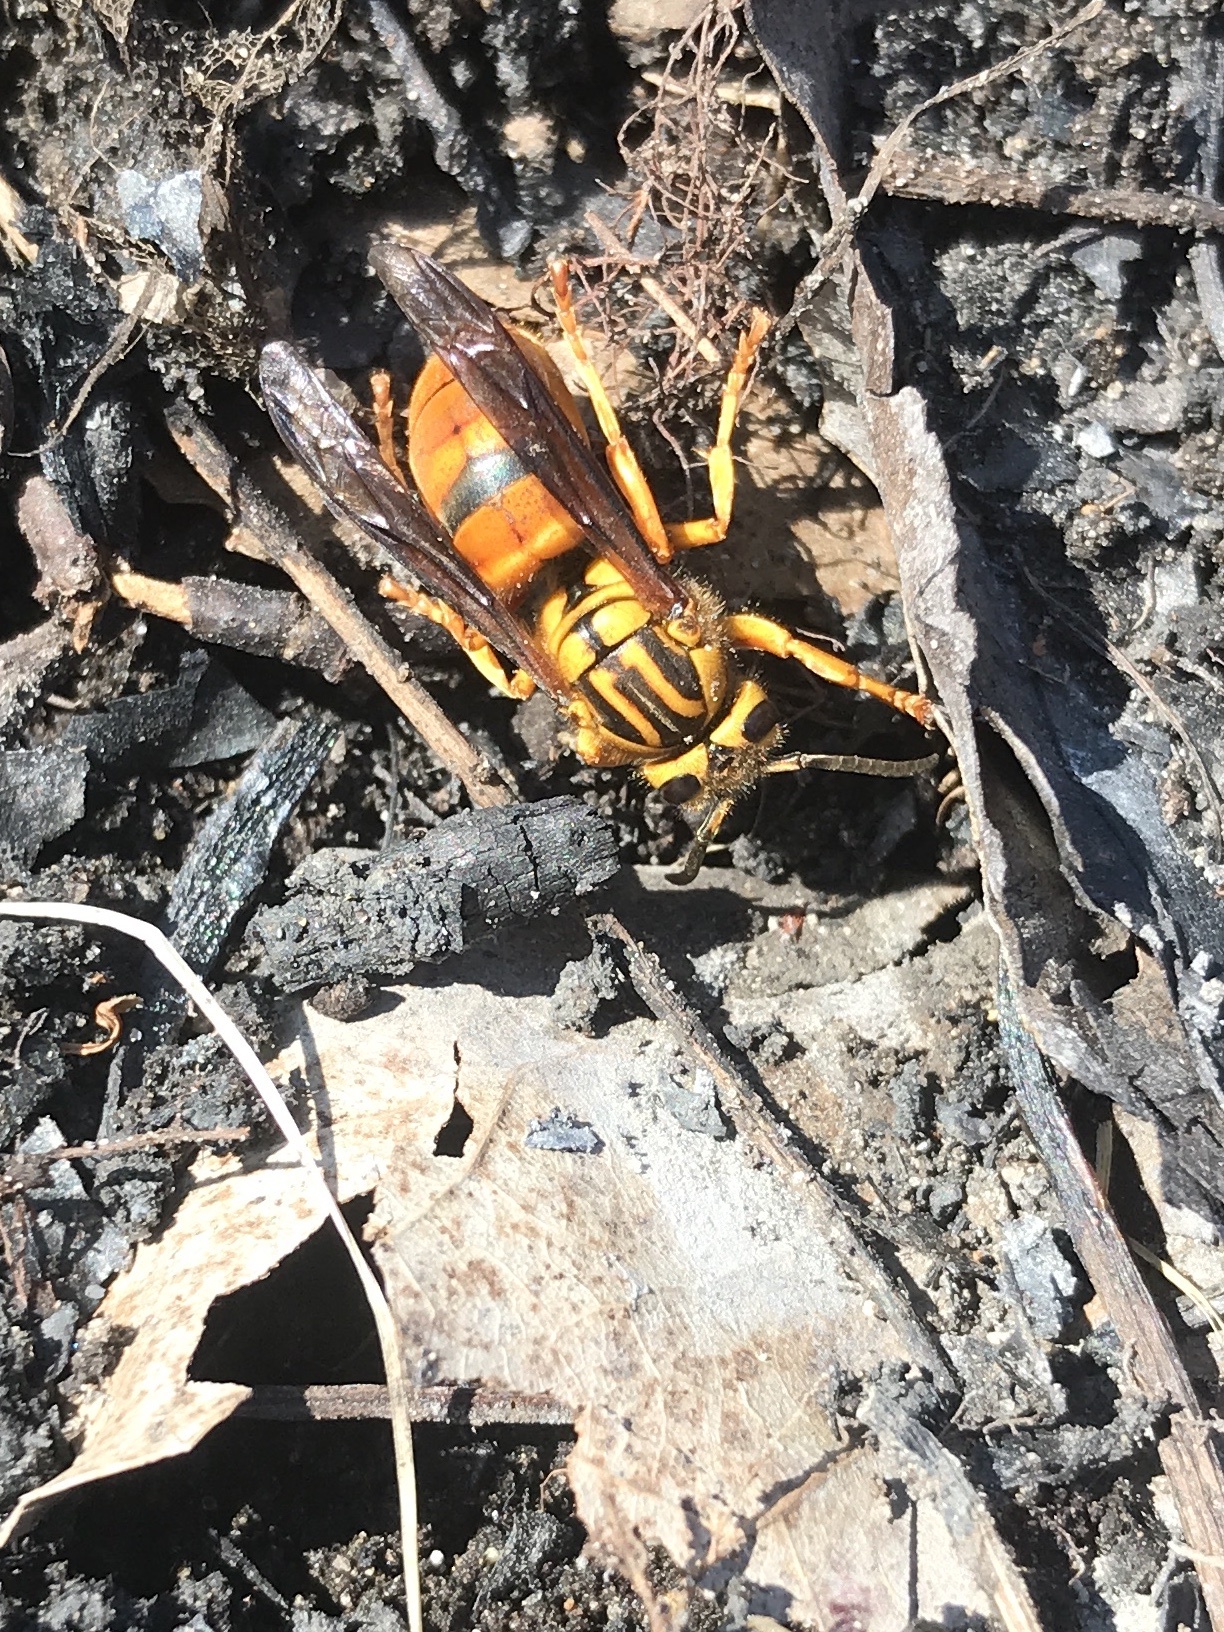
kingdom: Animalia
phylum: Arthropoda
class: Insecta
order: Hymenoptera
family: Vespidae
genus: Vespula
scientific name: Vespula squamosa
